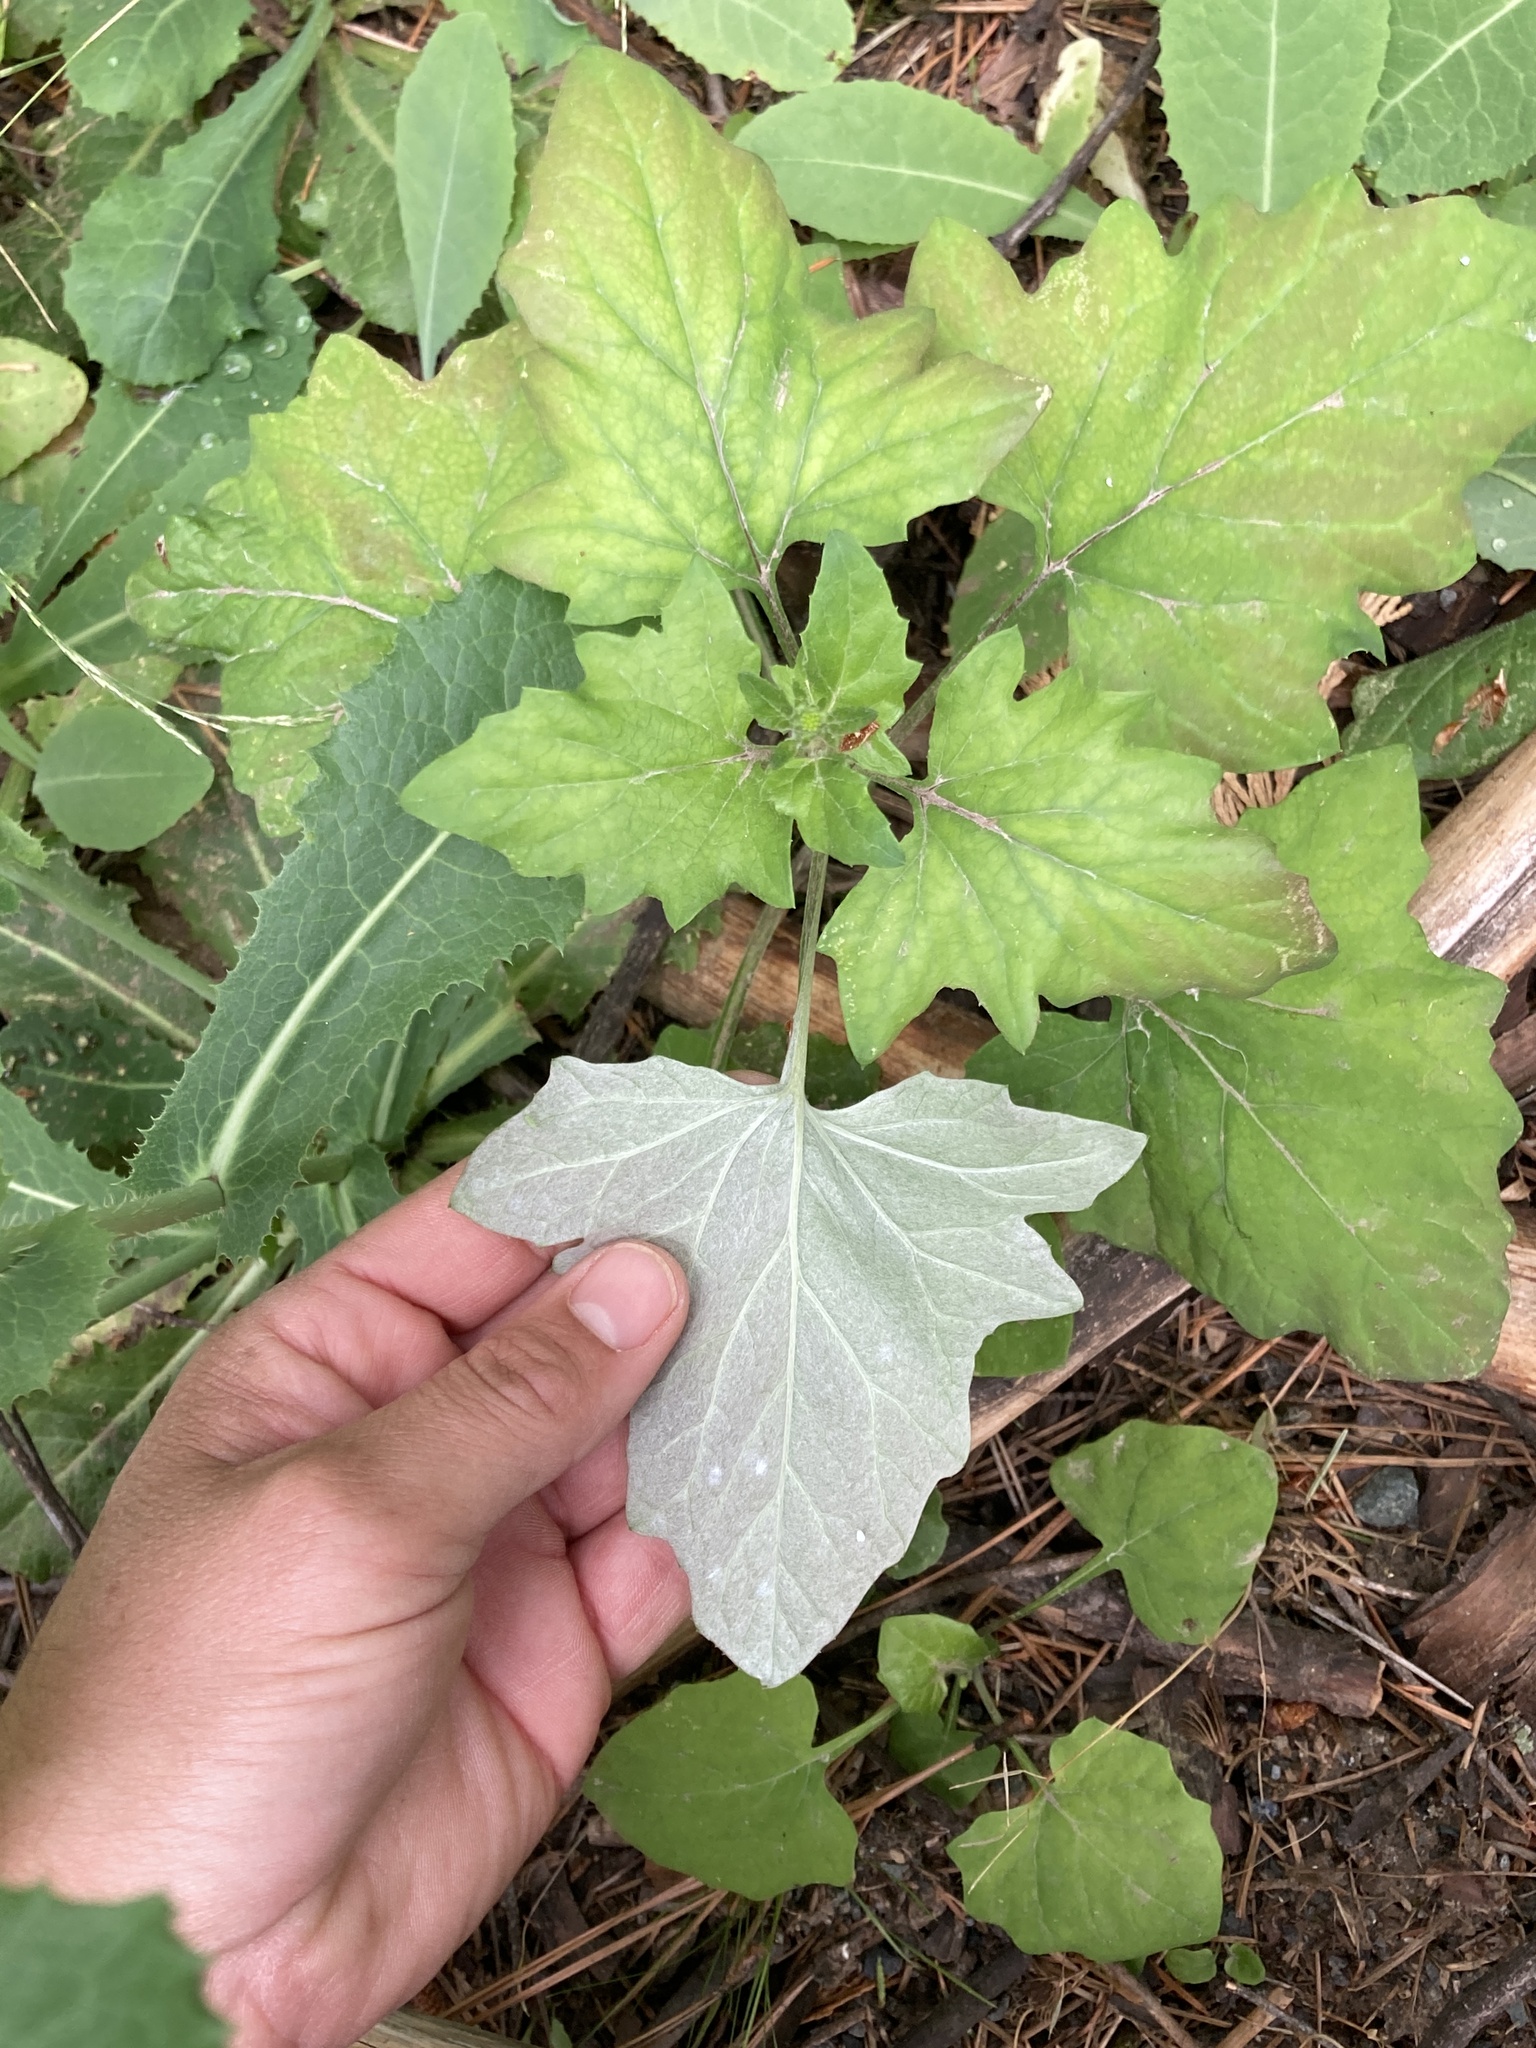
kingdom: Plantae
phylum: Tracheophyta
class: Magnoliopsida
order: Asterales
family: Asteraceae
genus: Adenocaulon
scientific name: Adenocaulon bicolor
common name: Trailplant
